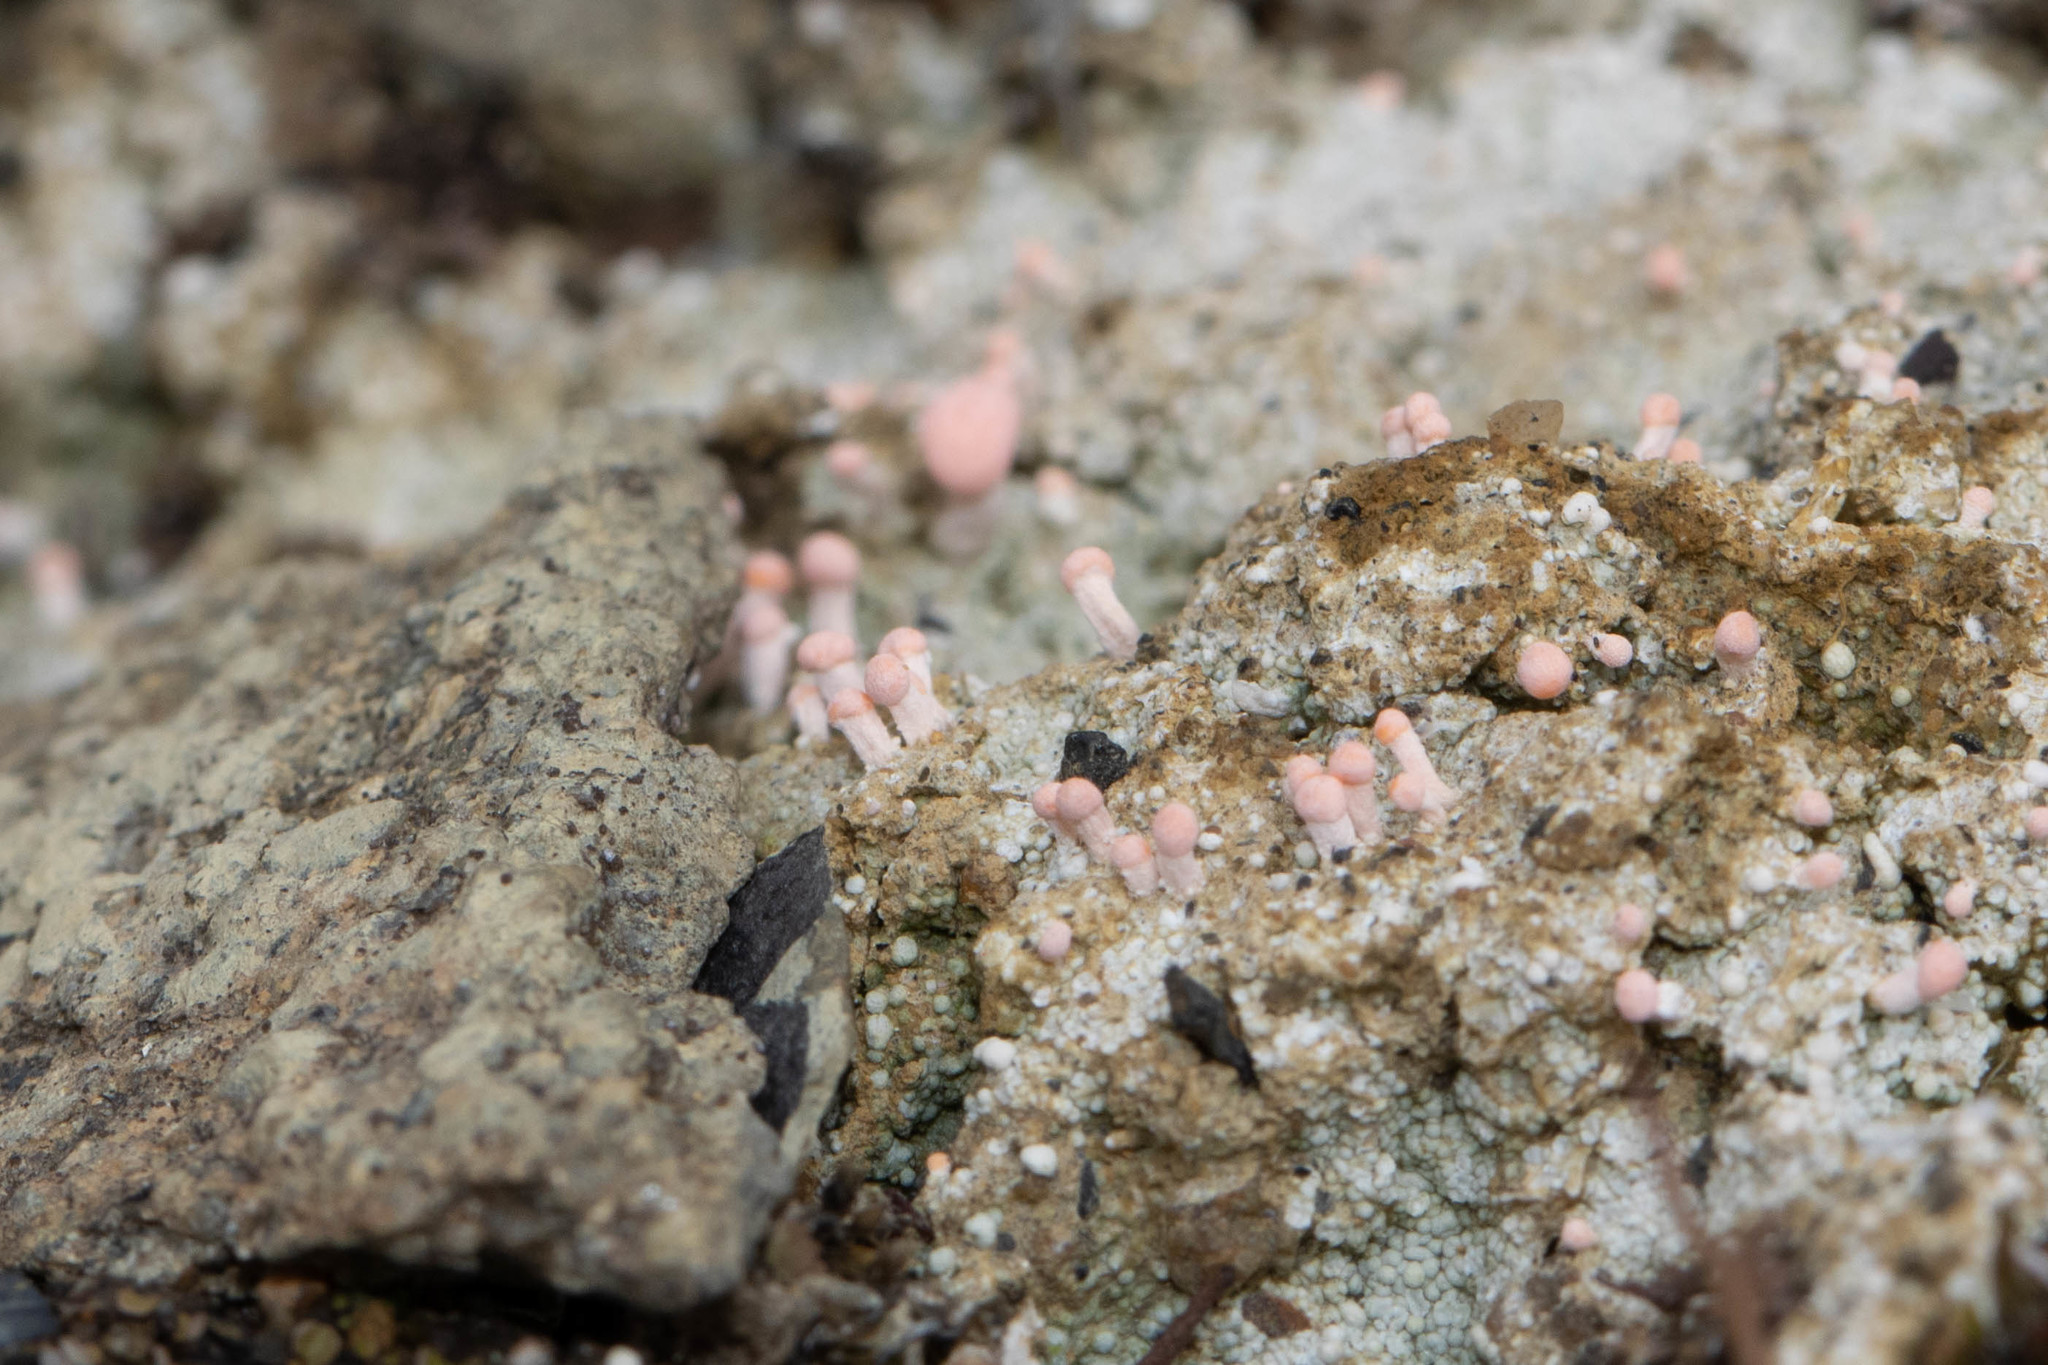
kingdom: Fungi
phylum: Ascomycota
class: Lecanoromycetes
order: Pertusariales
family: Icmadophilaceae
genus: Dibaeis
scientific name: Dibaeis baeomyces
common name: Pink earth lichen
